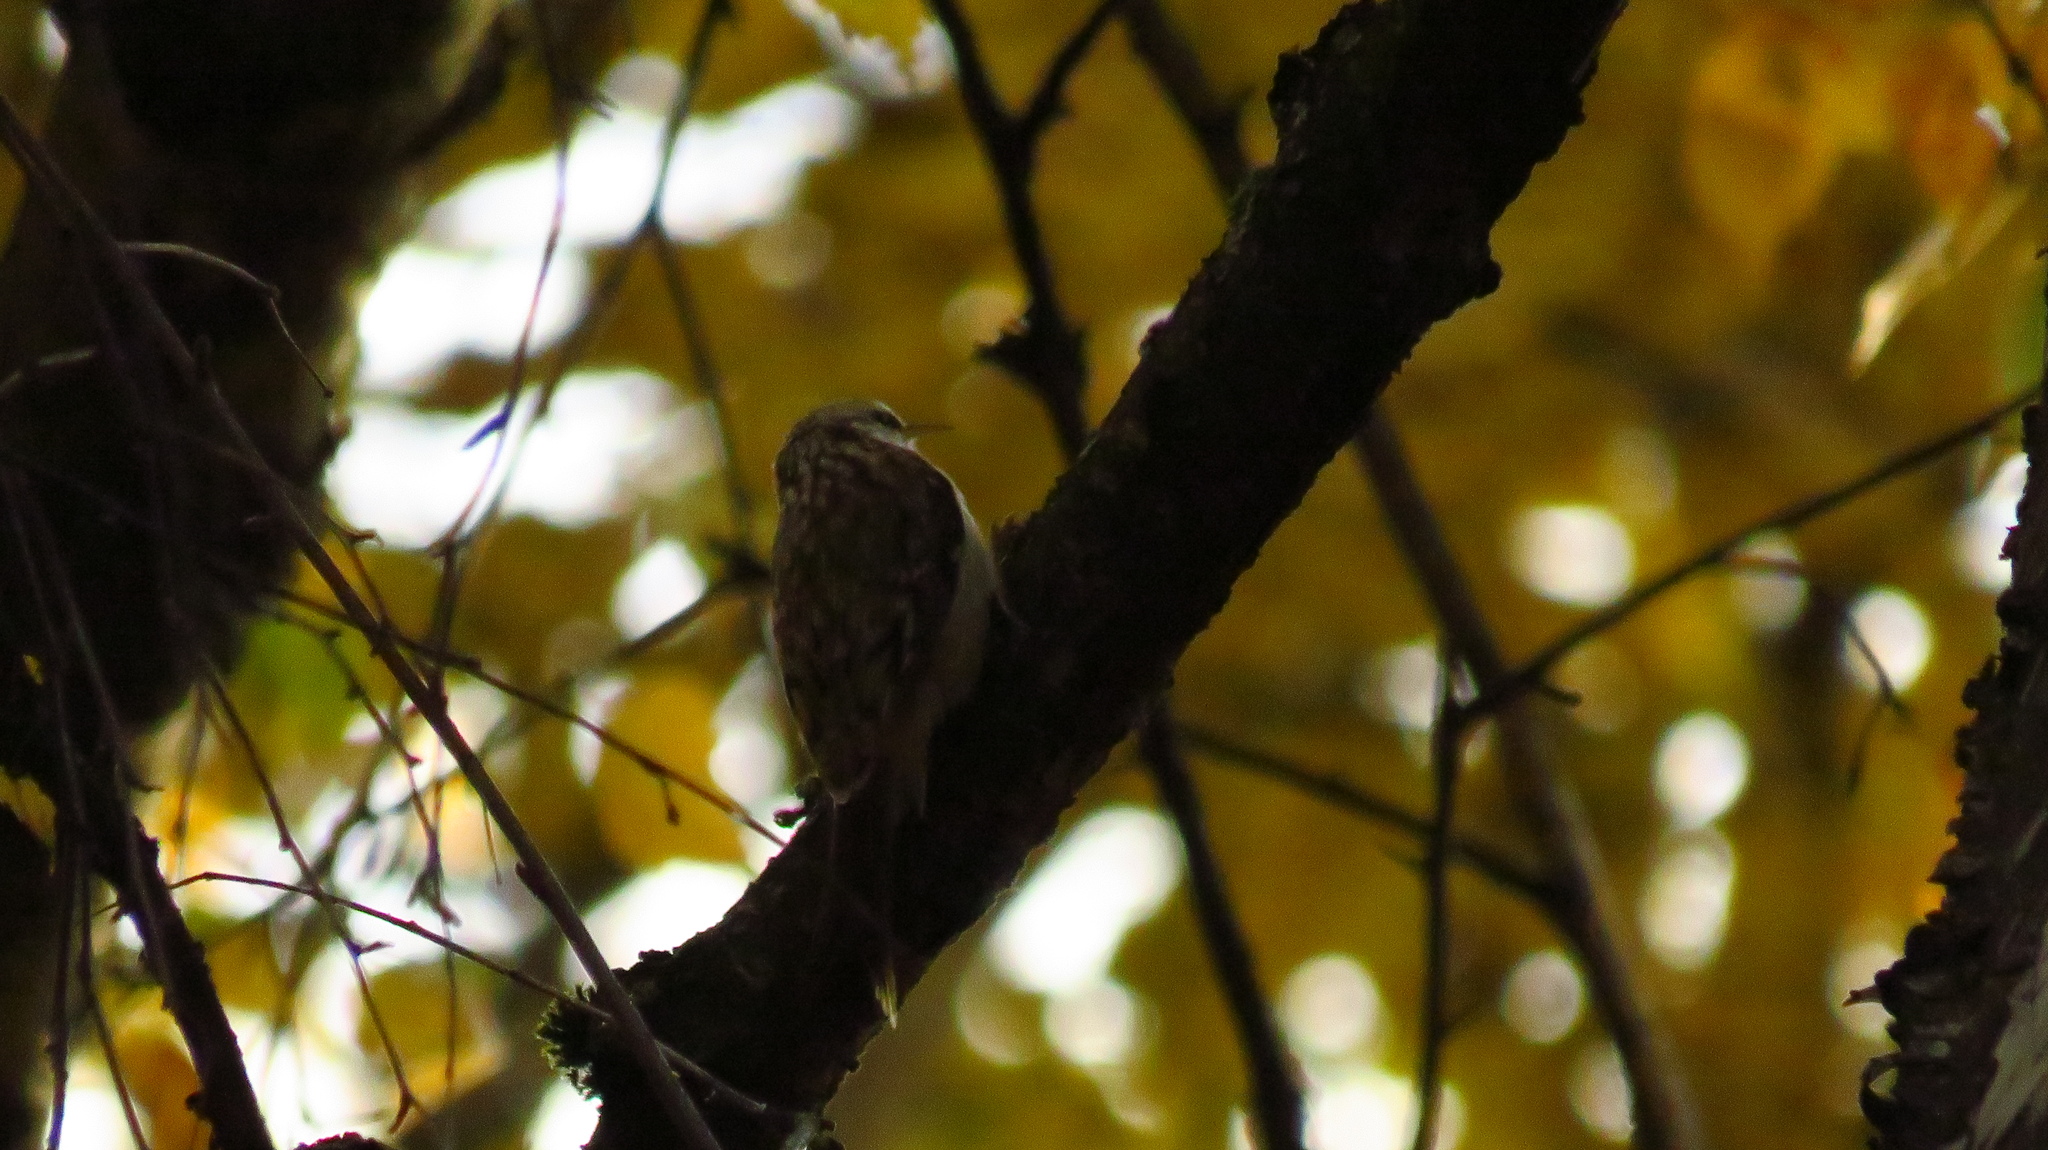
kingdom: Animalia
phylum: Chordata
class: Aves
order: Passeriformes
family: Certhiidae
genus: Certhia
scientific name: Certhia familiaris
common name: Eurasian treecreeper
